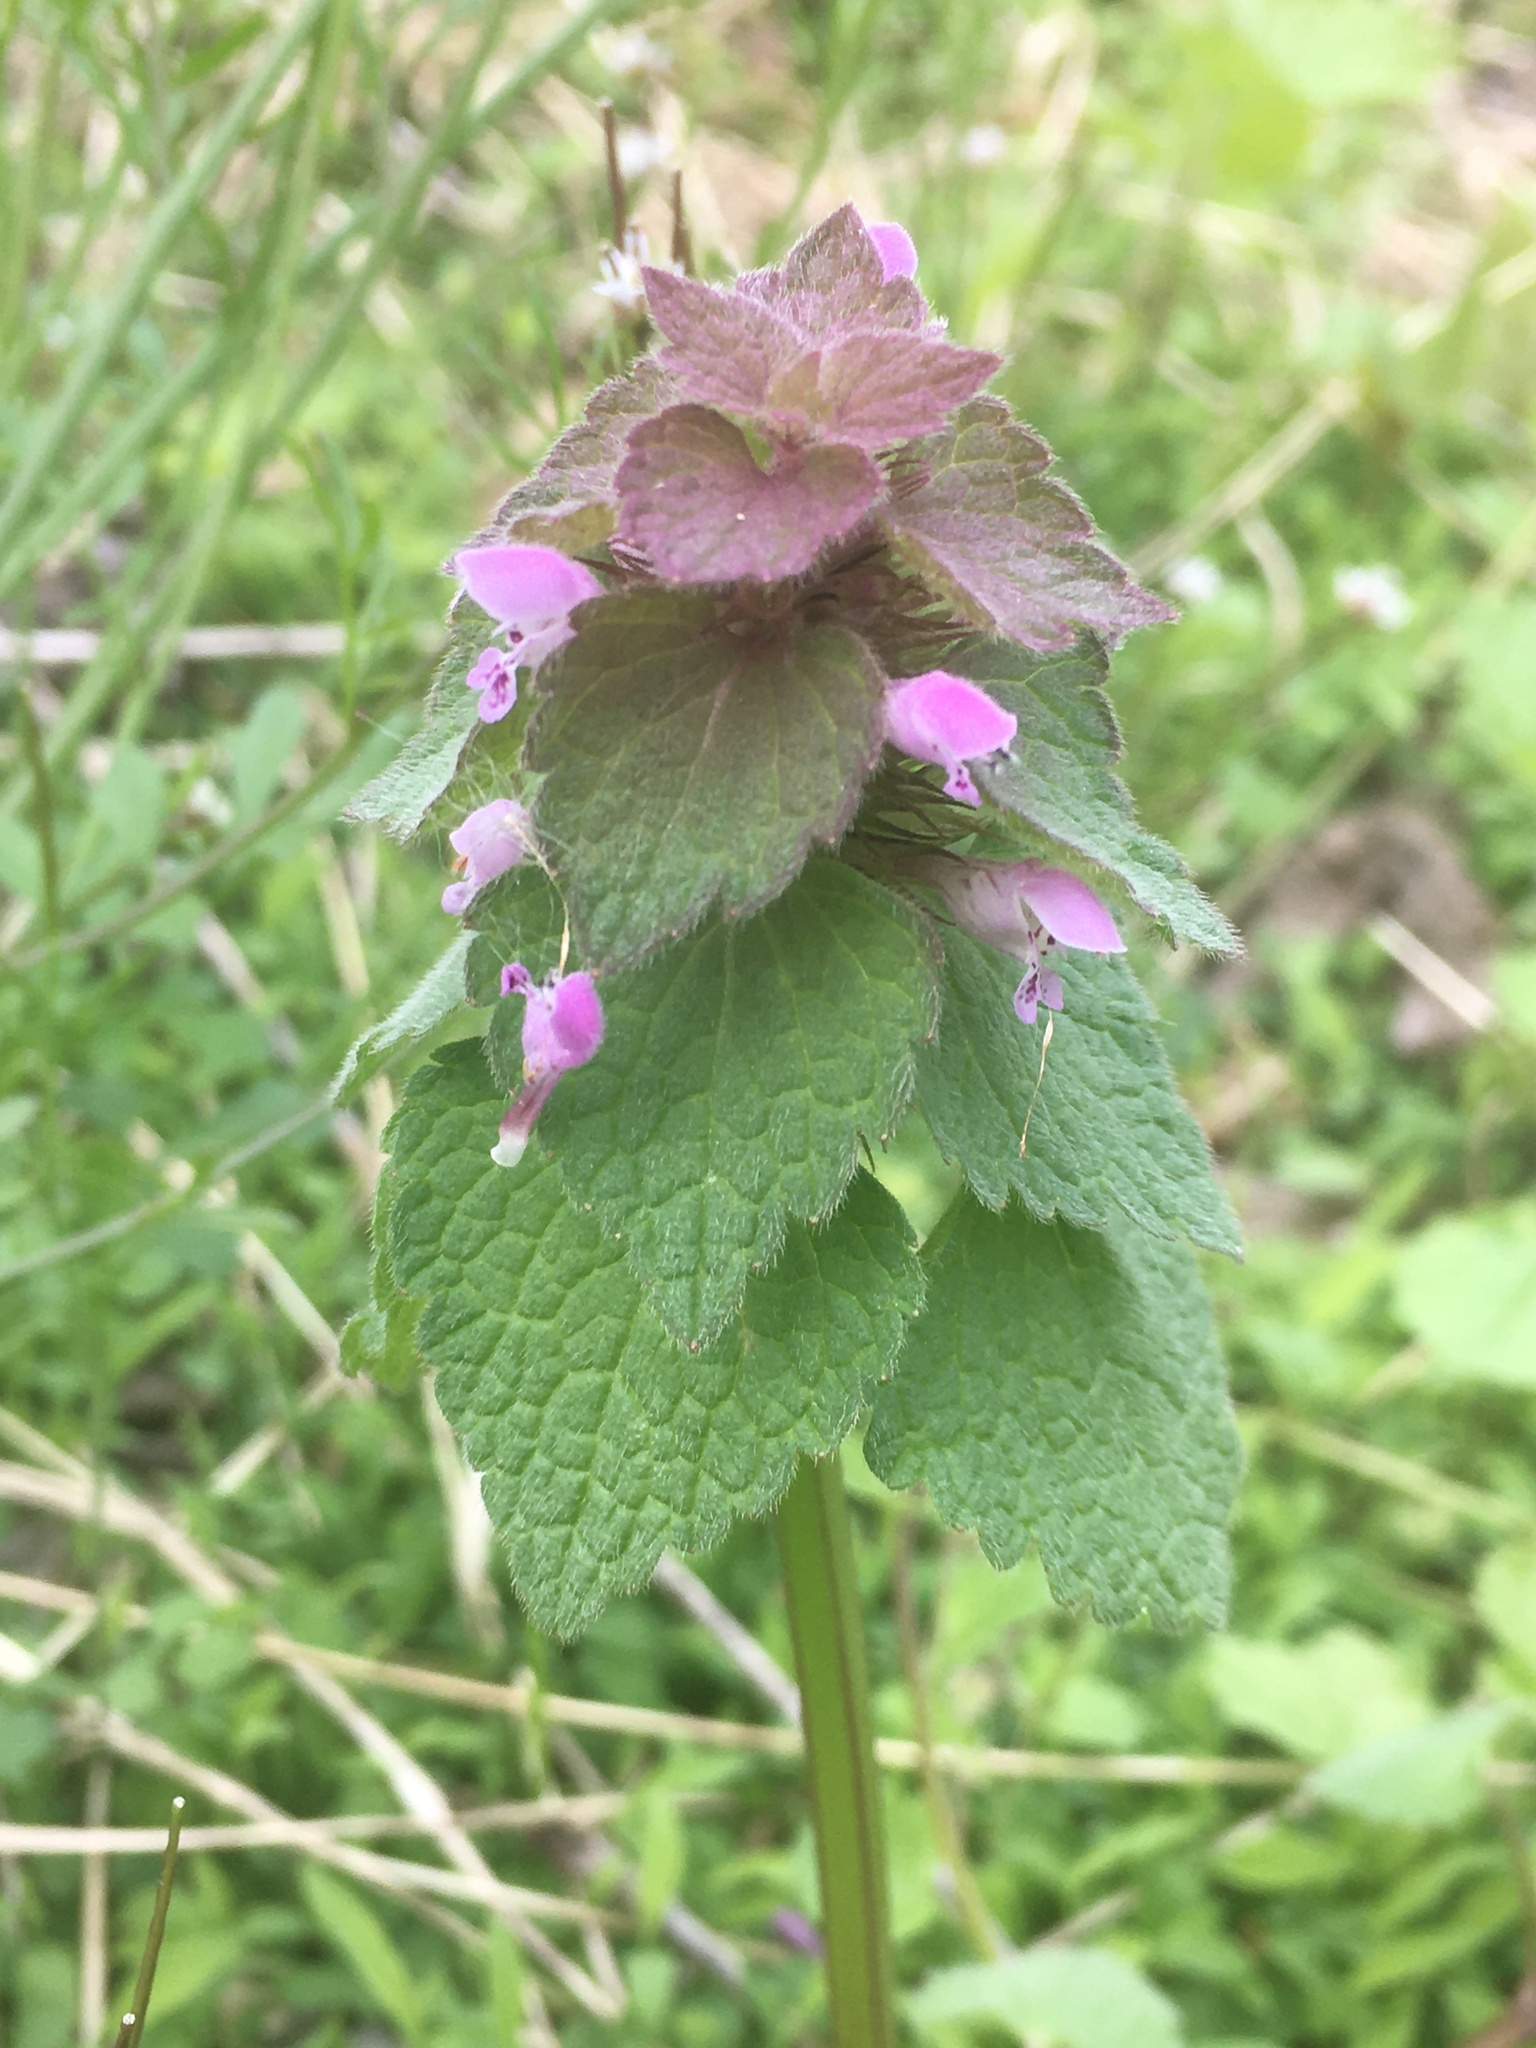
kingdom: Plantae
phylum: Tracheophyta
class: Magnoliopsida
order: Lamiales
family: Lamiaceae
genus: Lamium
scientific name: Lamium purpureum
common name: Red dead-nettle
